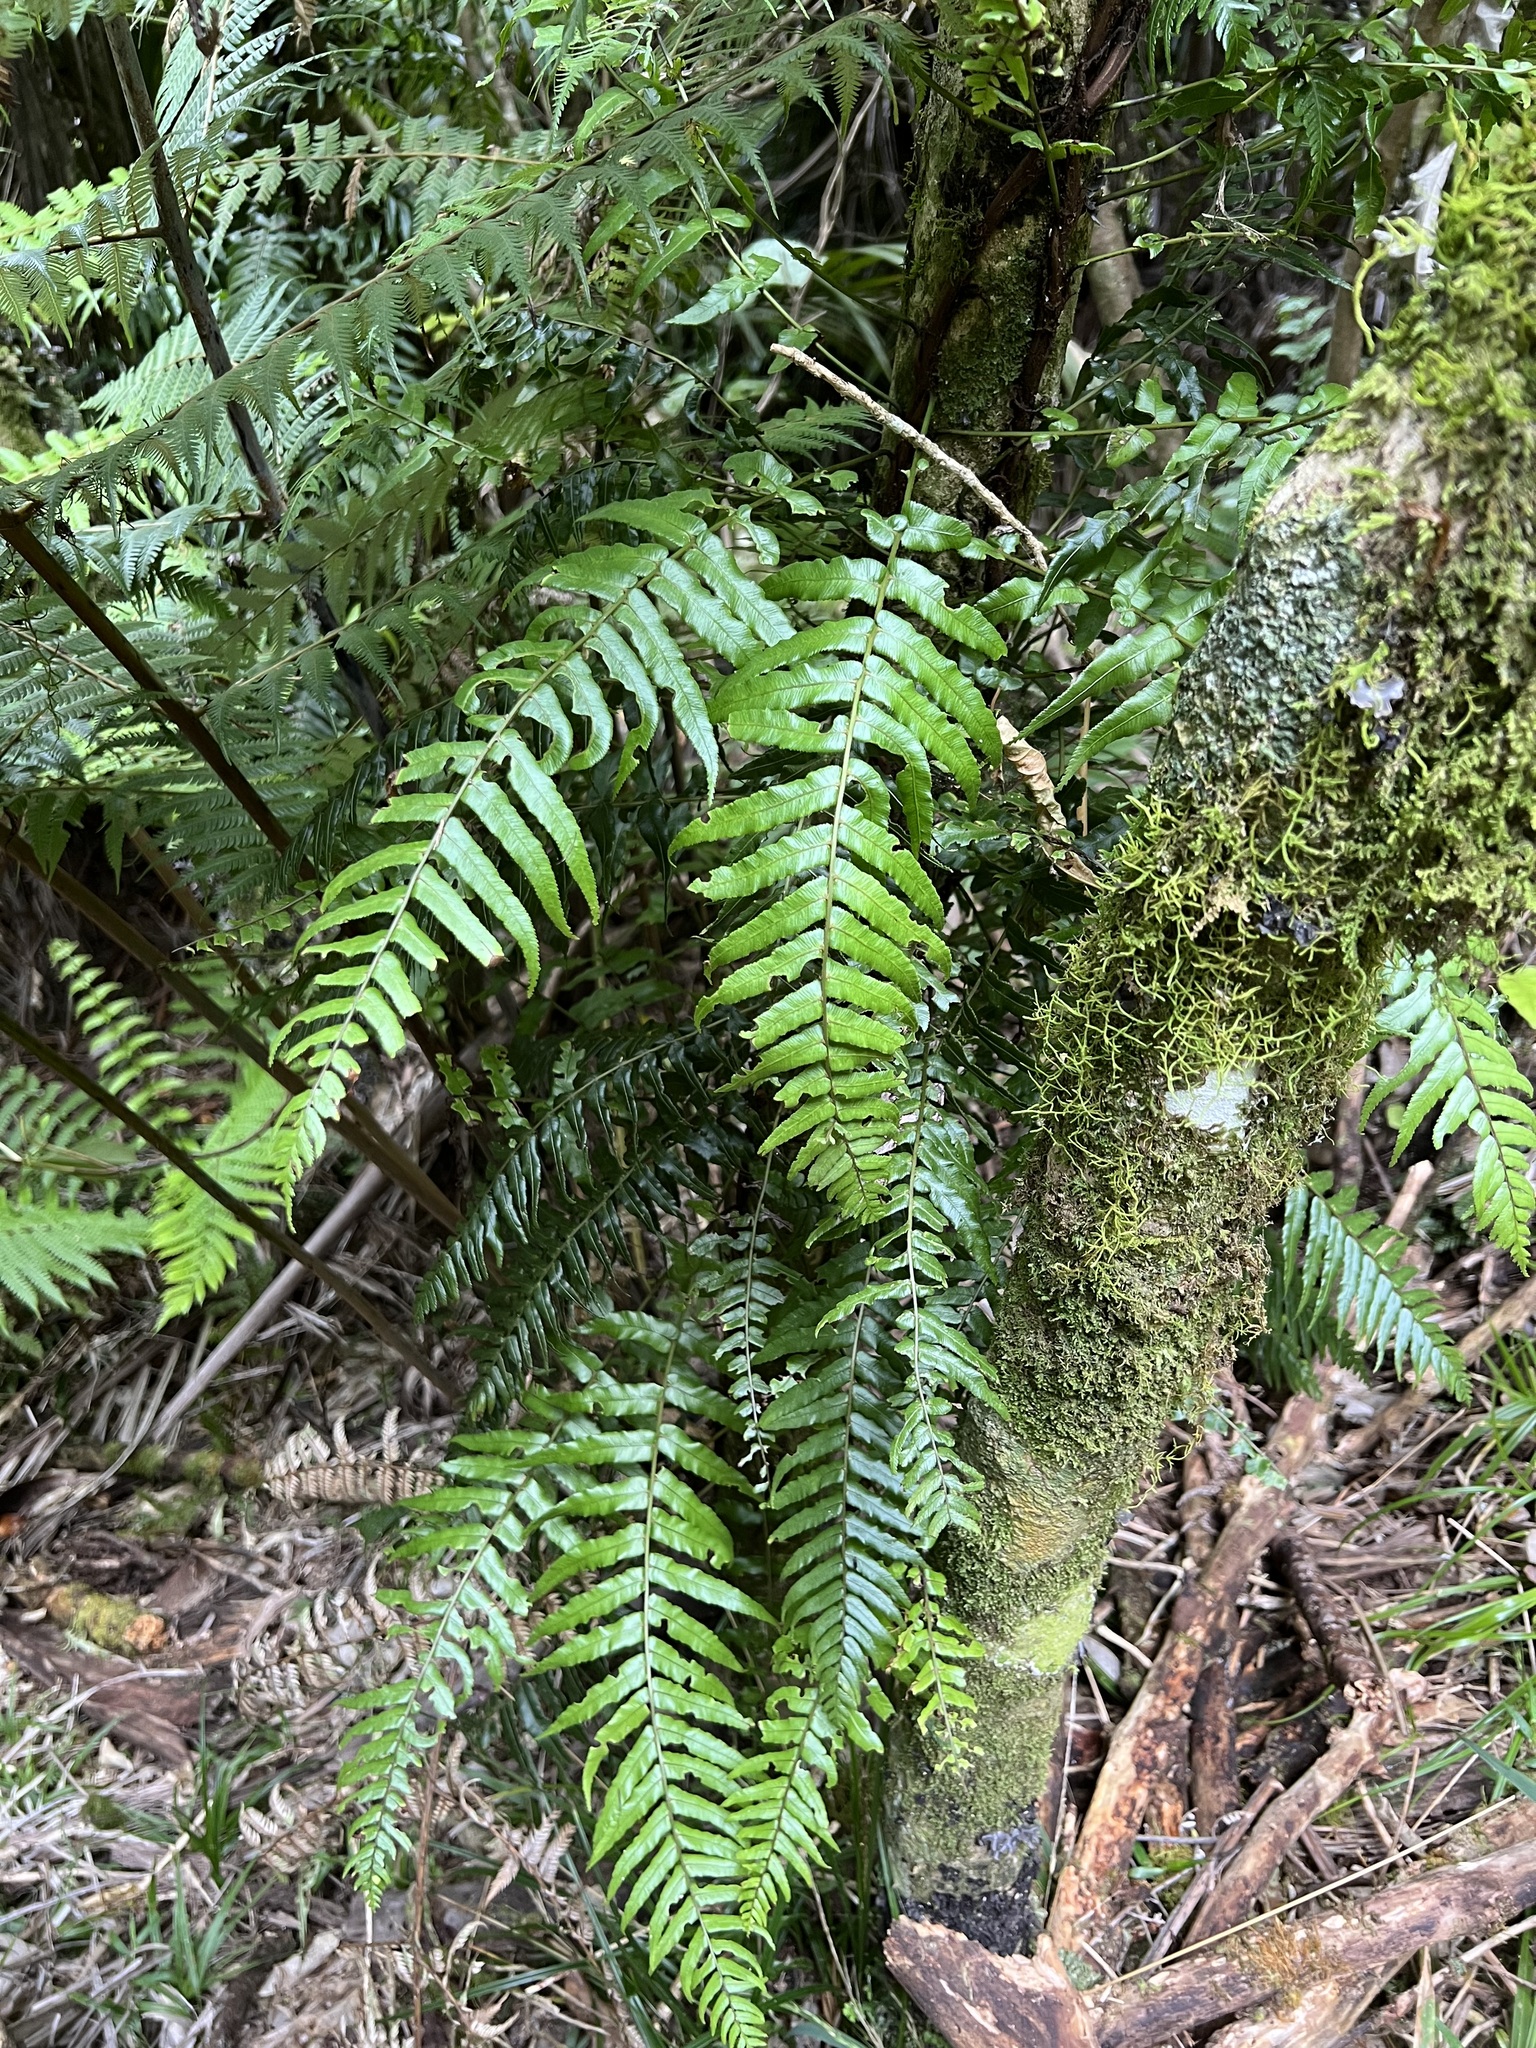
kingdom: Plantae
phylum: Tracheophyta
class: Polypodiopsida
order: Polypodiales
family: Blechnaceae
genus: Icarus
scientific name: Icarus filiformis
